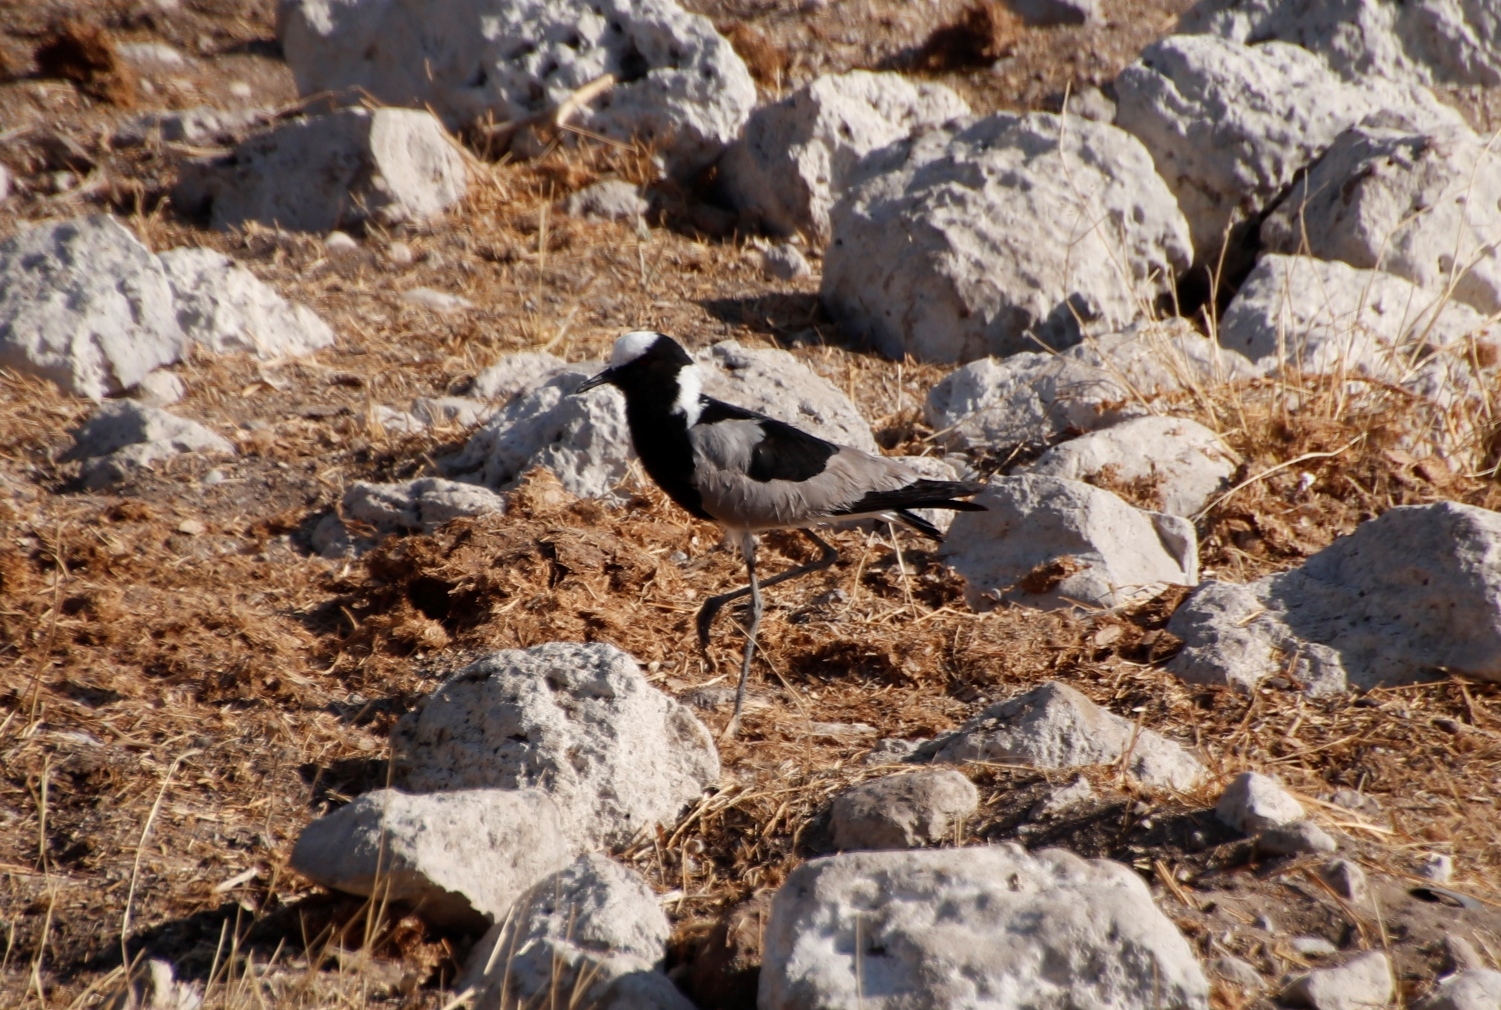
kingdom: Animalia
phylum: Chordata
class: Aves
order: Charadriiformes
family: Charadriidae
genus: Vanellus
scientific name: Vanellus armatus
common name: Blacksmith lapwing
